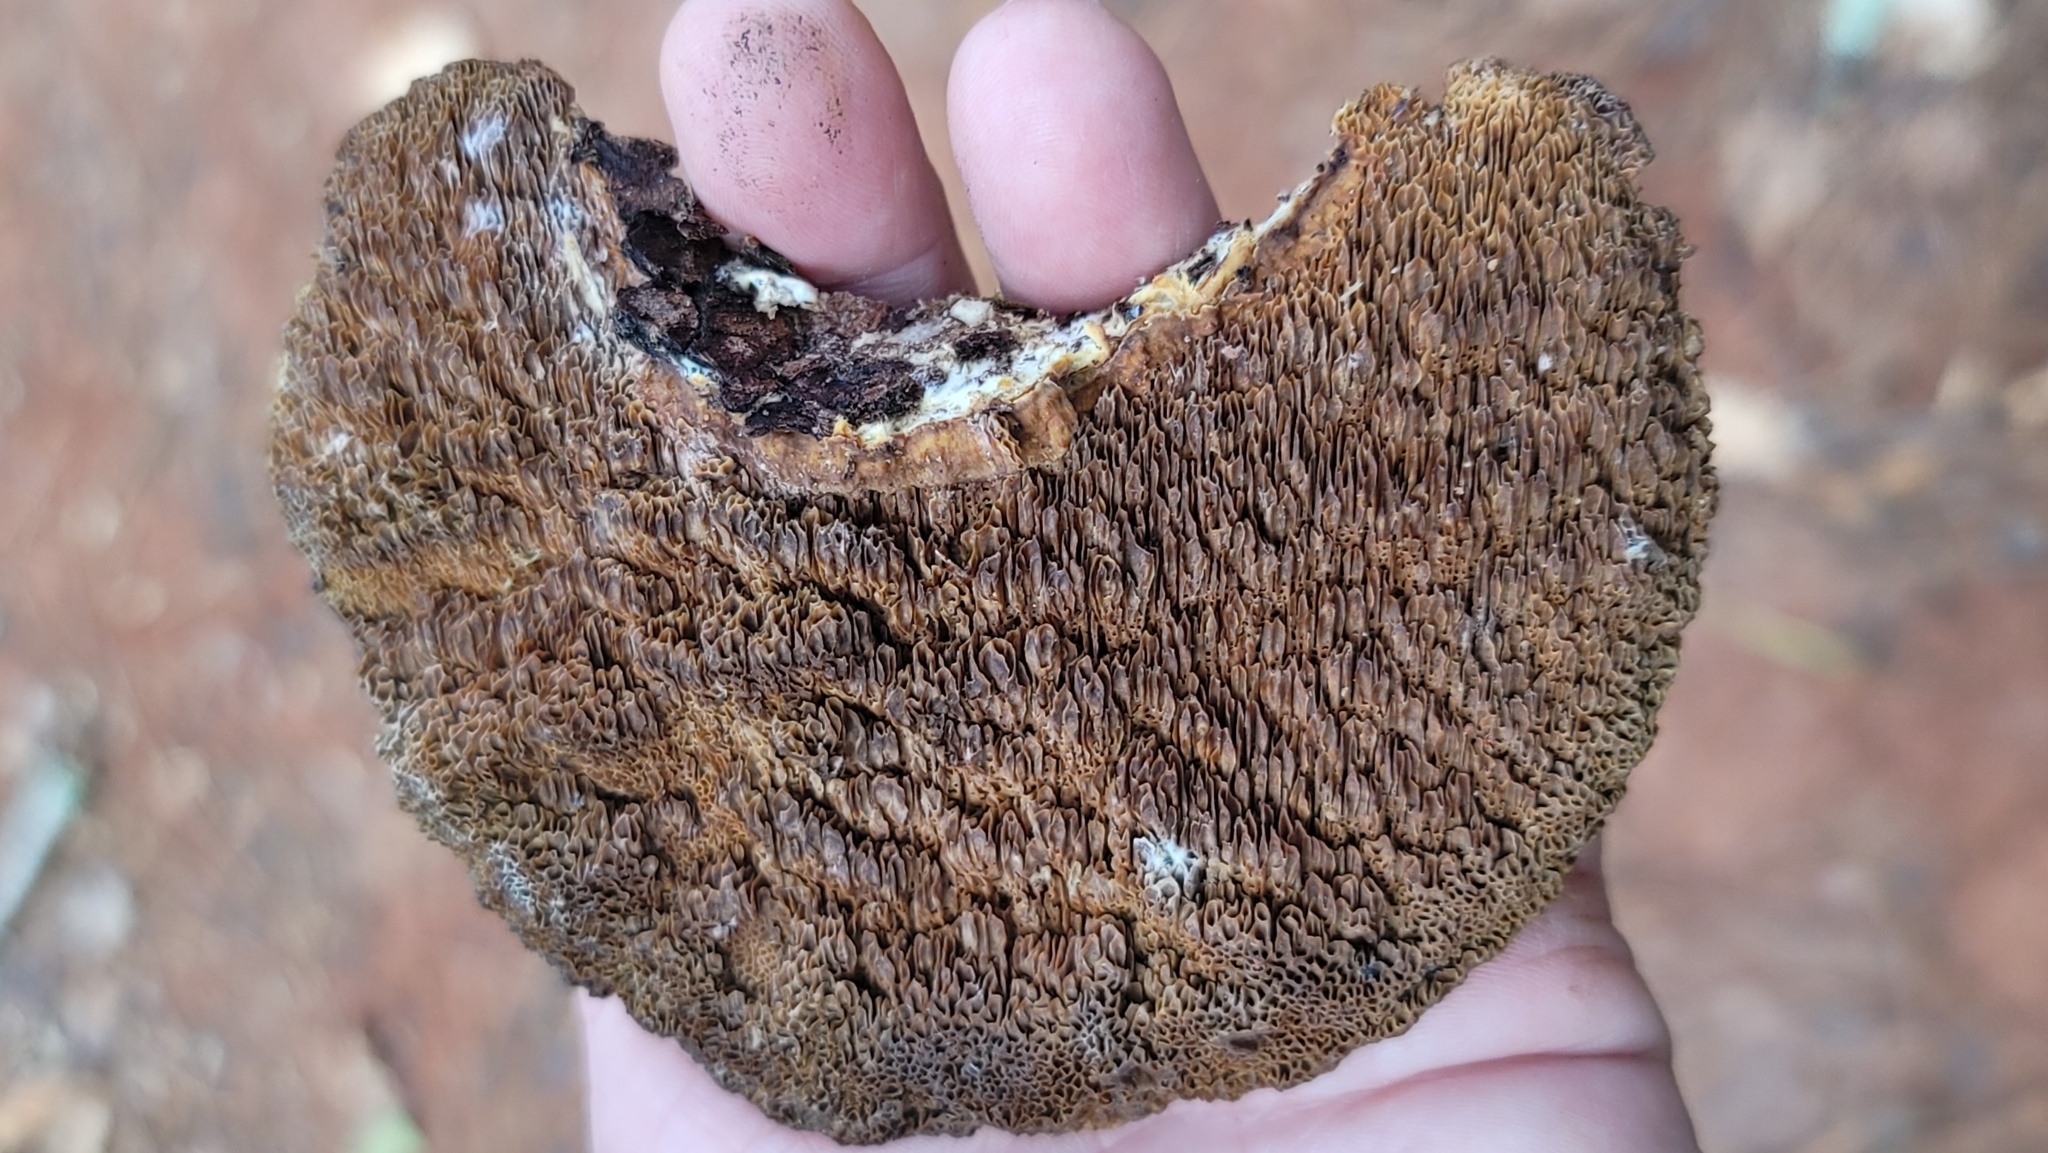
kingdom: Fungi
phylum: Basidiomycota
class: Agaricomycetes
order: Polyporales
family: Polyporaceae
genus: Daedaleopsis
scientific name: Daedaleopsis confragosa
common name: Blushing bracket
